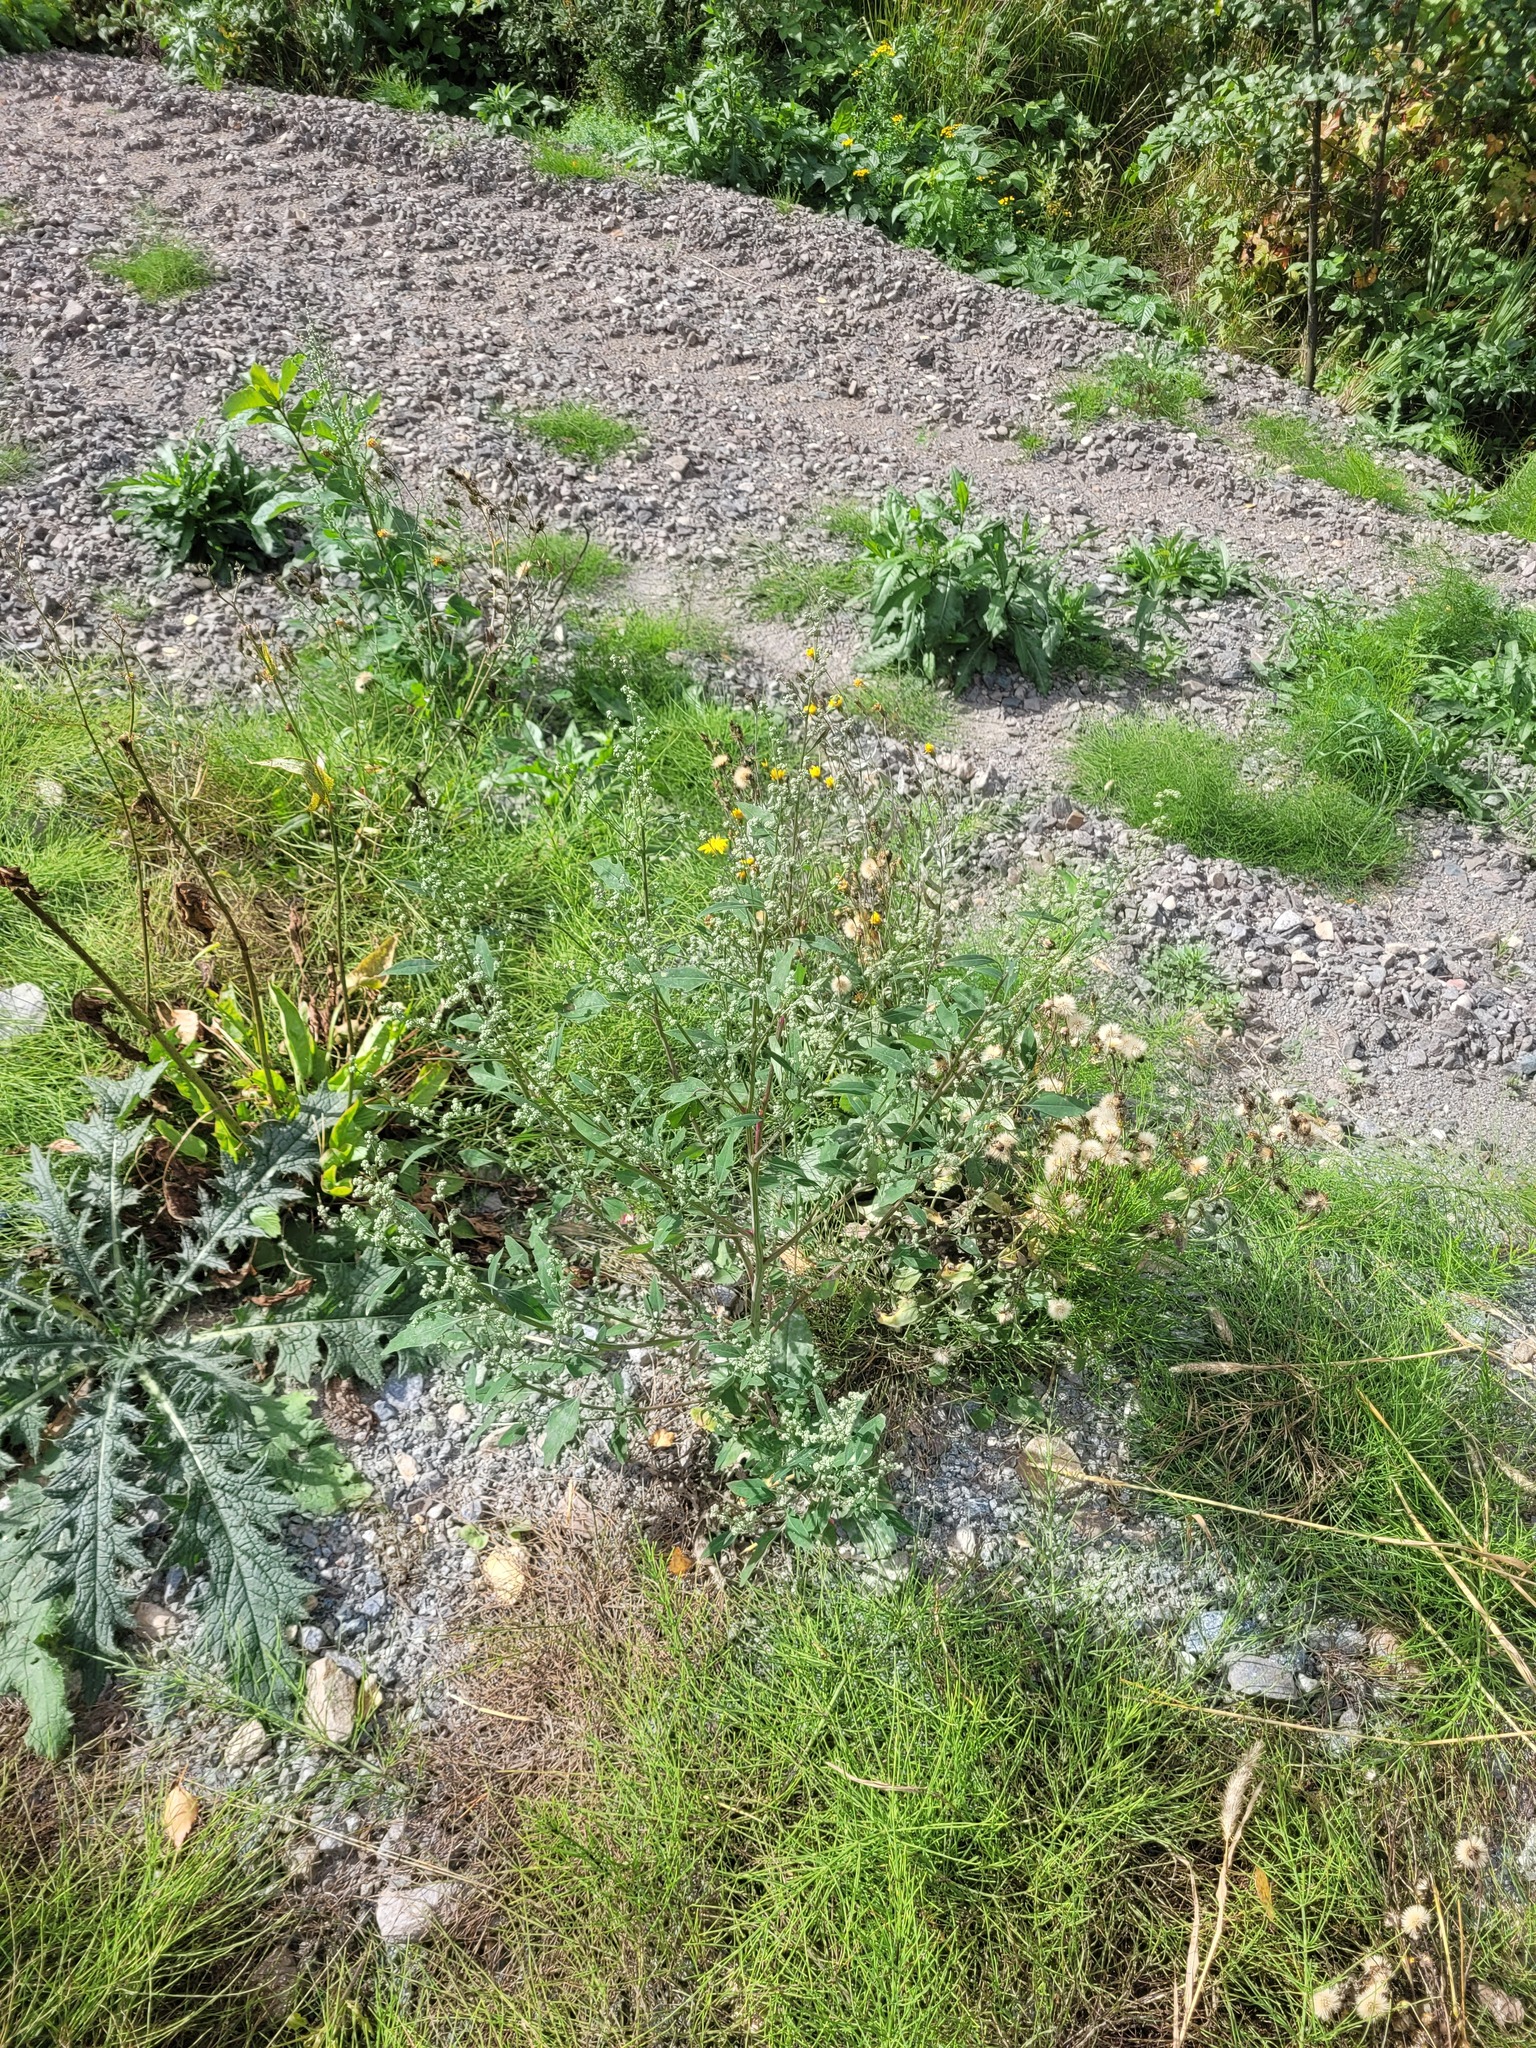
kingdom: Plantae
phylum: Tracheophyta
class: Magnoliopsida
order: Caryophyllales
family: Amaranthaceae
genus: Chenopodium
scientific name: Chenopodium album
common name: Fat-hen
